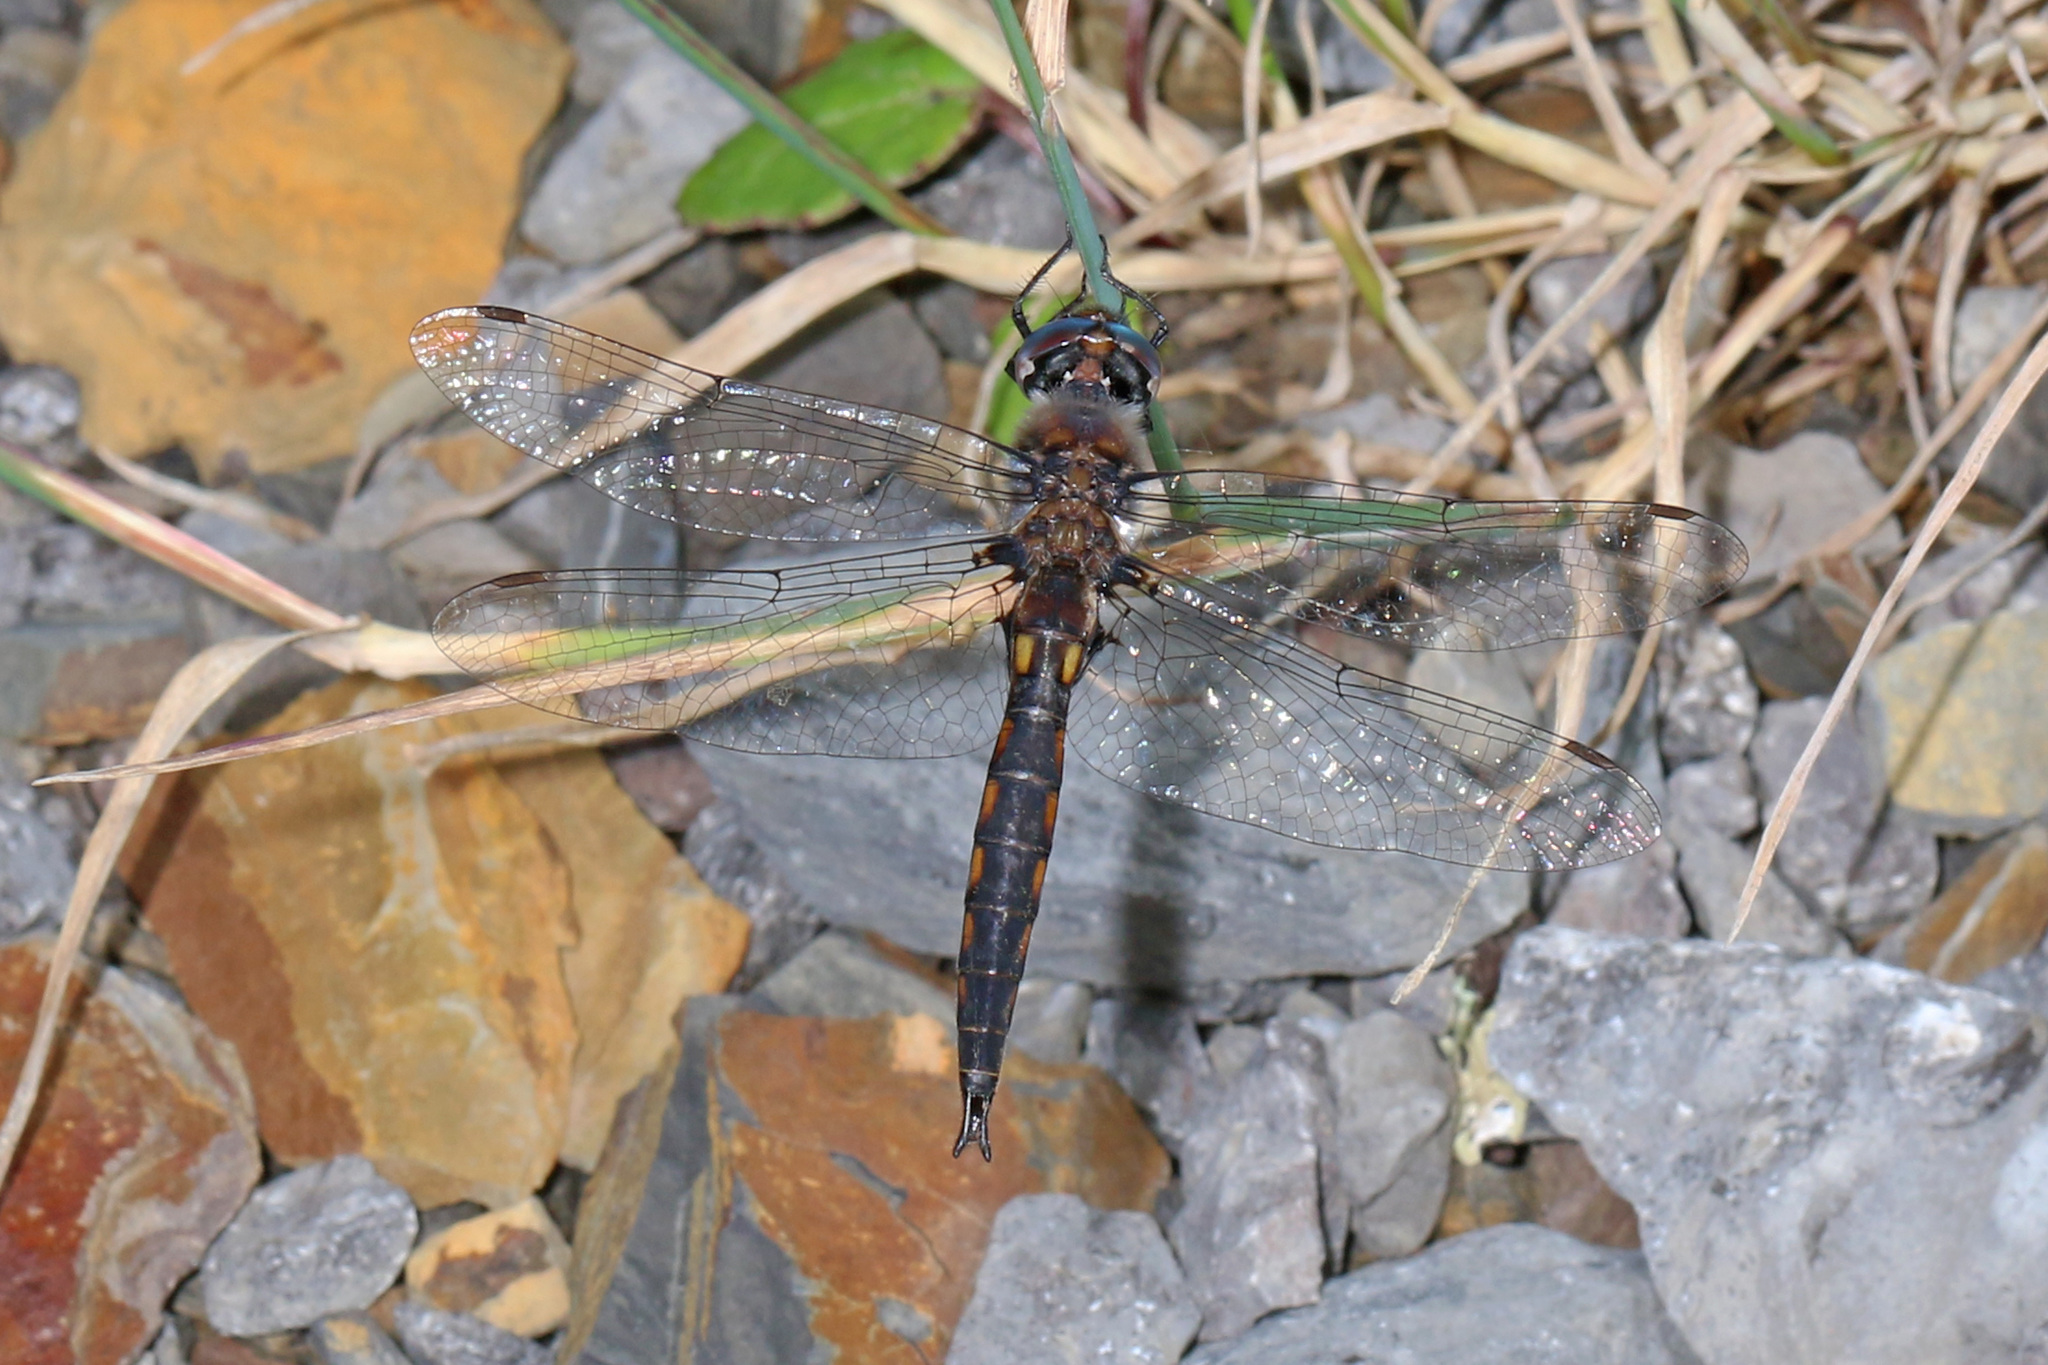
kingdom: Animalia
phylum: Arthropoda
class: Insecta
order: Odonata
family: Corduliidae
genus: Epitheca
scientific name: Epitheca cynosura
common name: Common baskettail
